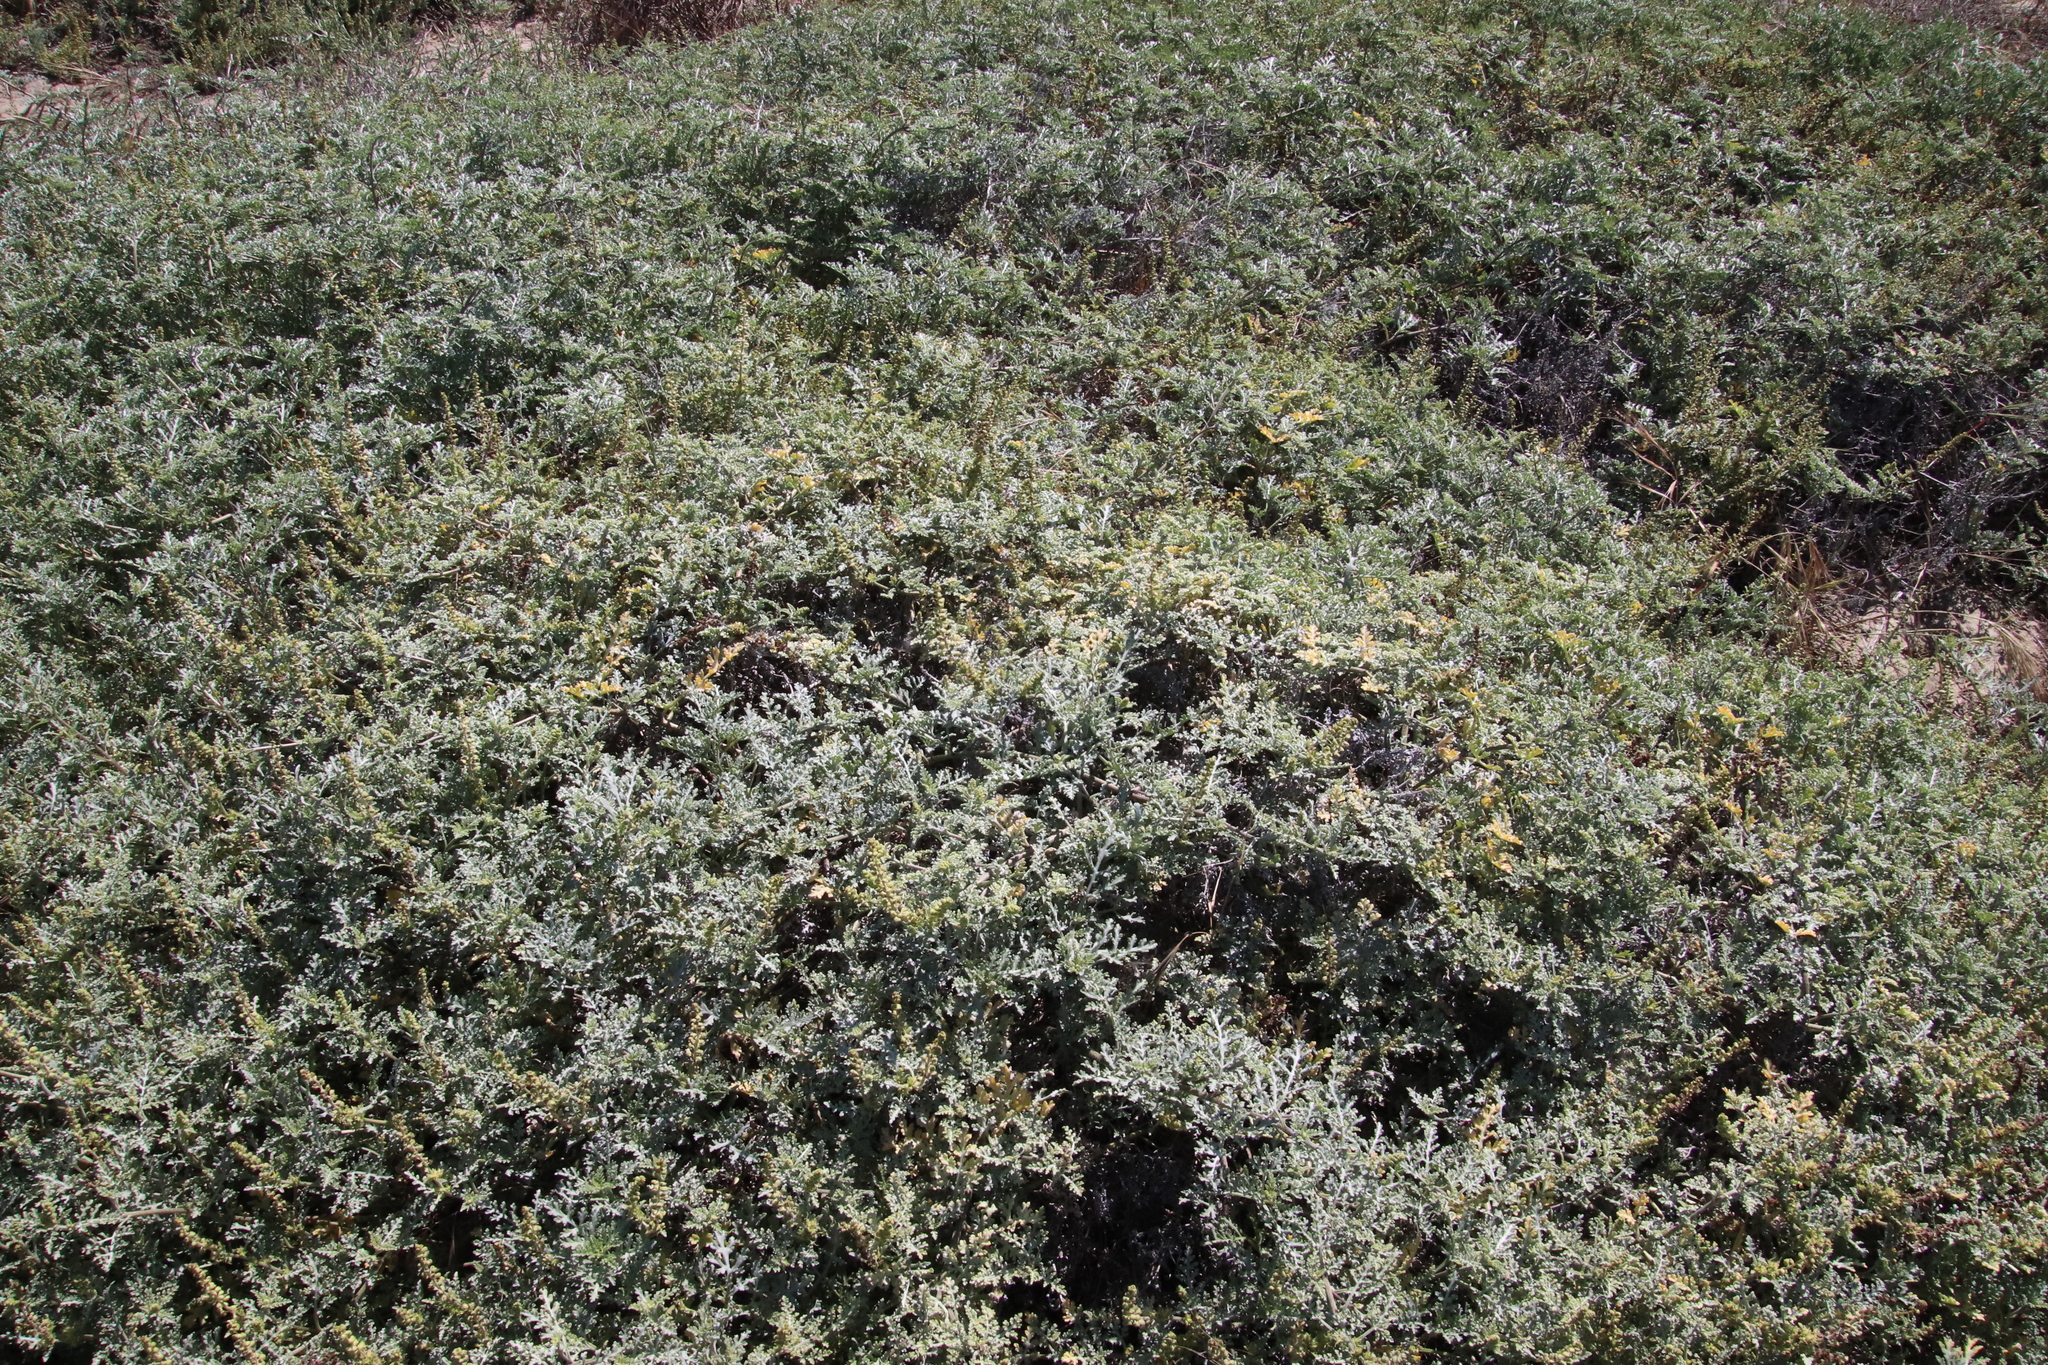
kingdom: Plantae
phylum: Tracheophyta
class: Magnoliopsida
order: Asterales
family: Asteraceae
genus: Ambrosia
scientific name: Ambrosia chamissonis
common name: Beachbur
